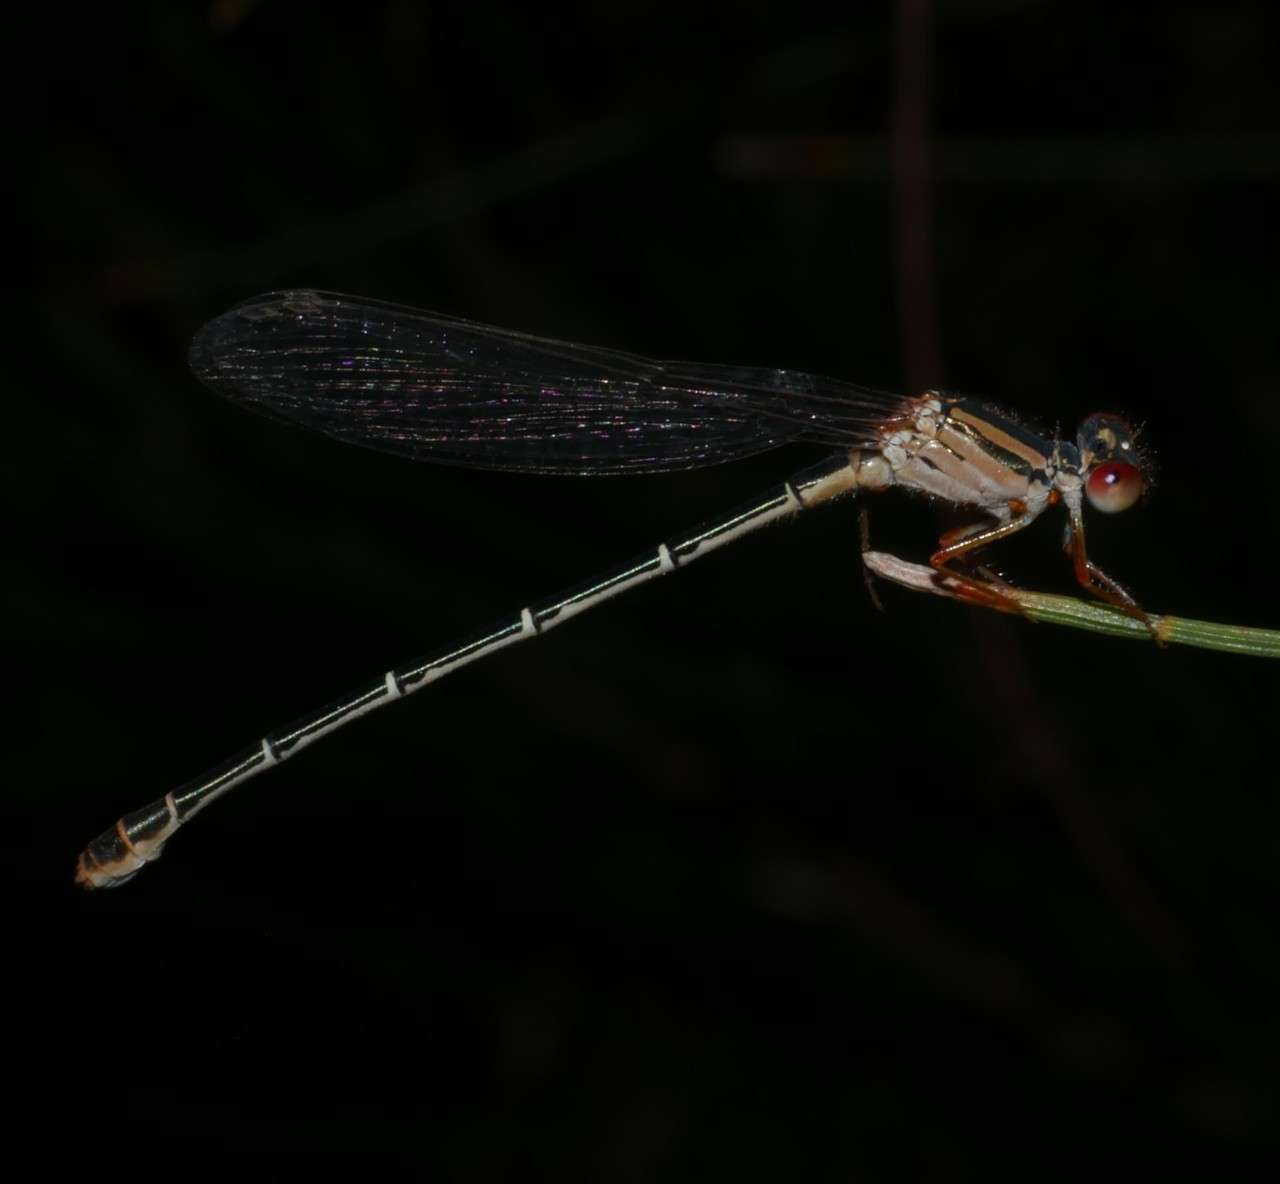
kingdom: Animalia
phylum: Arthropoda
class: Insecta
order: Odonata
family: Coenagrionidae
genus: Xanthagrion
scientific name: Xanthagrion erythroneurum
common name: Red and blue damsel
